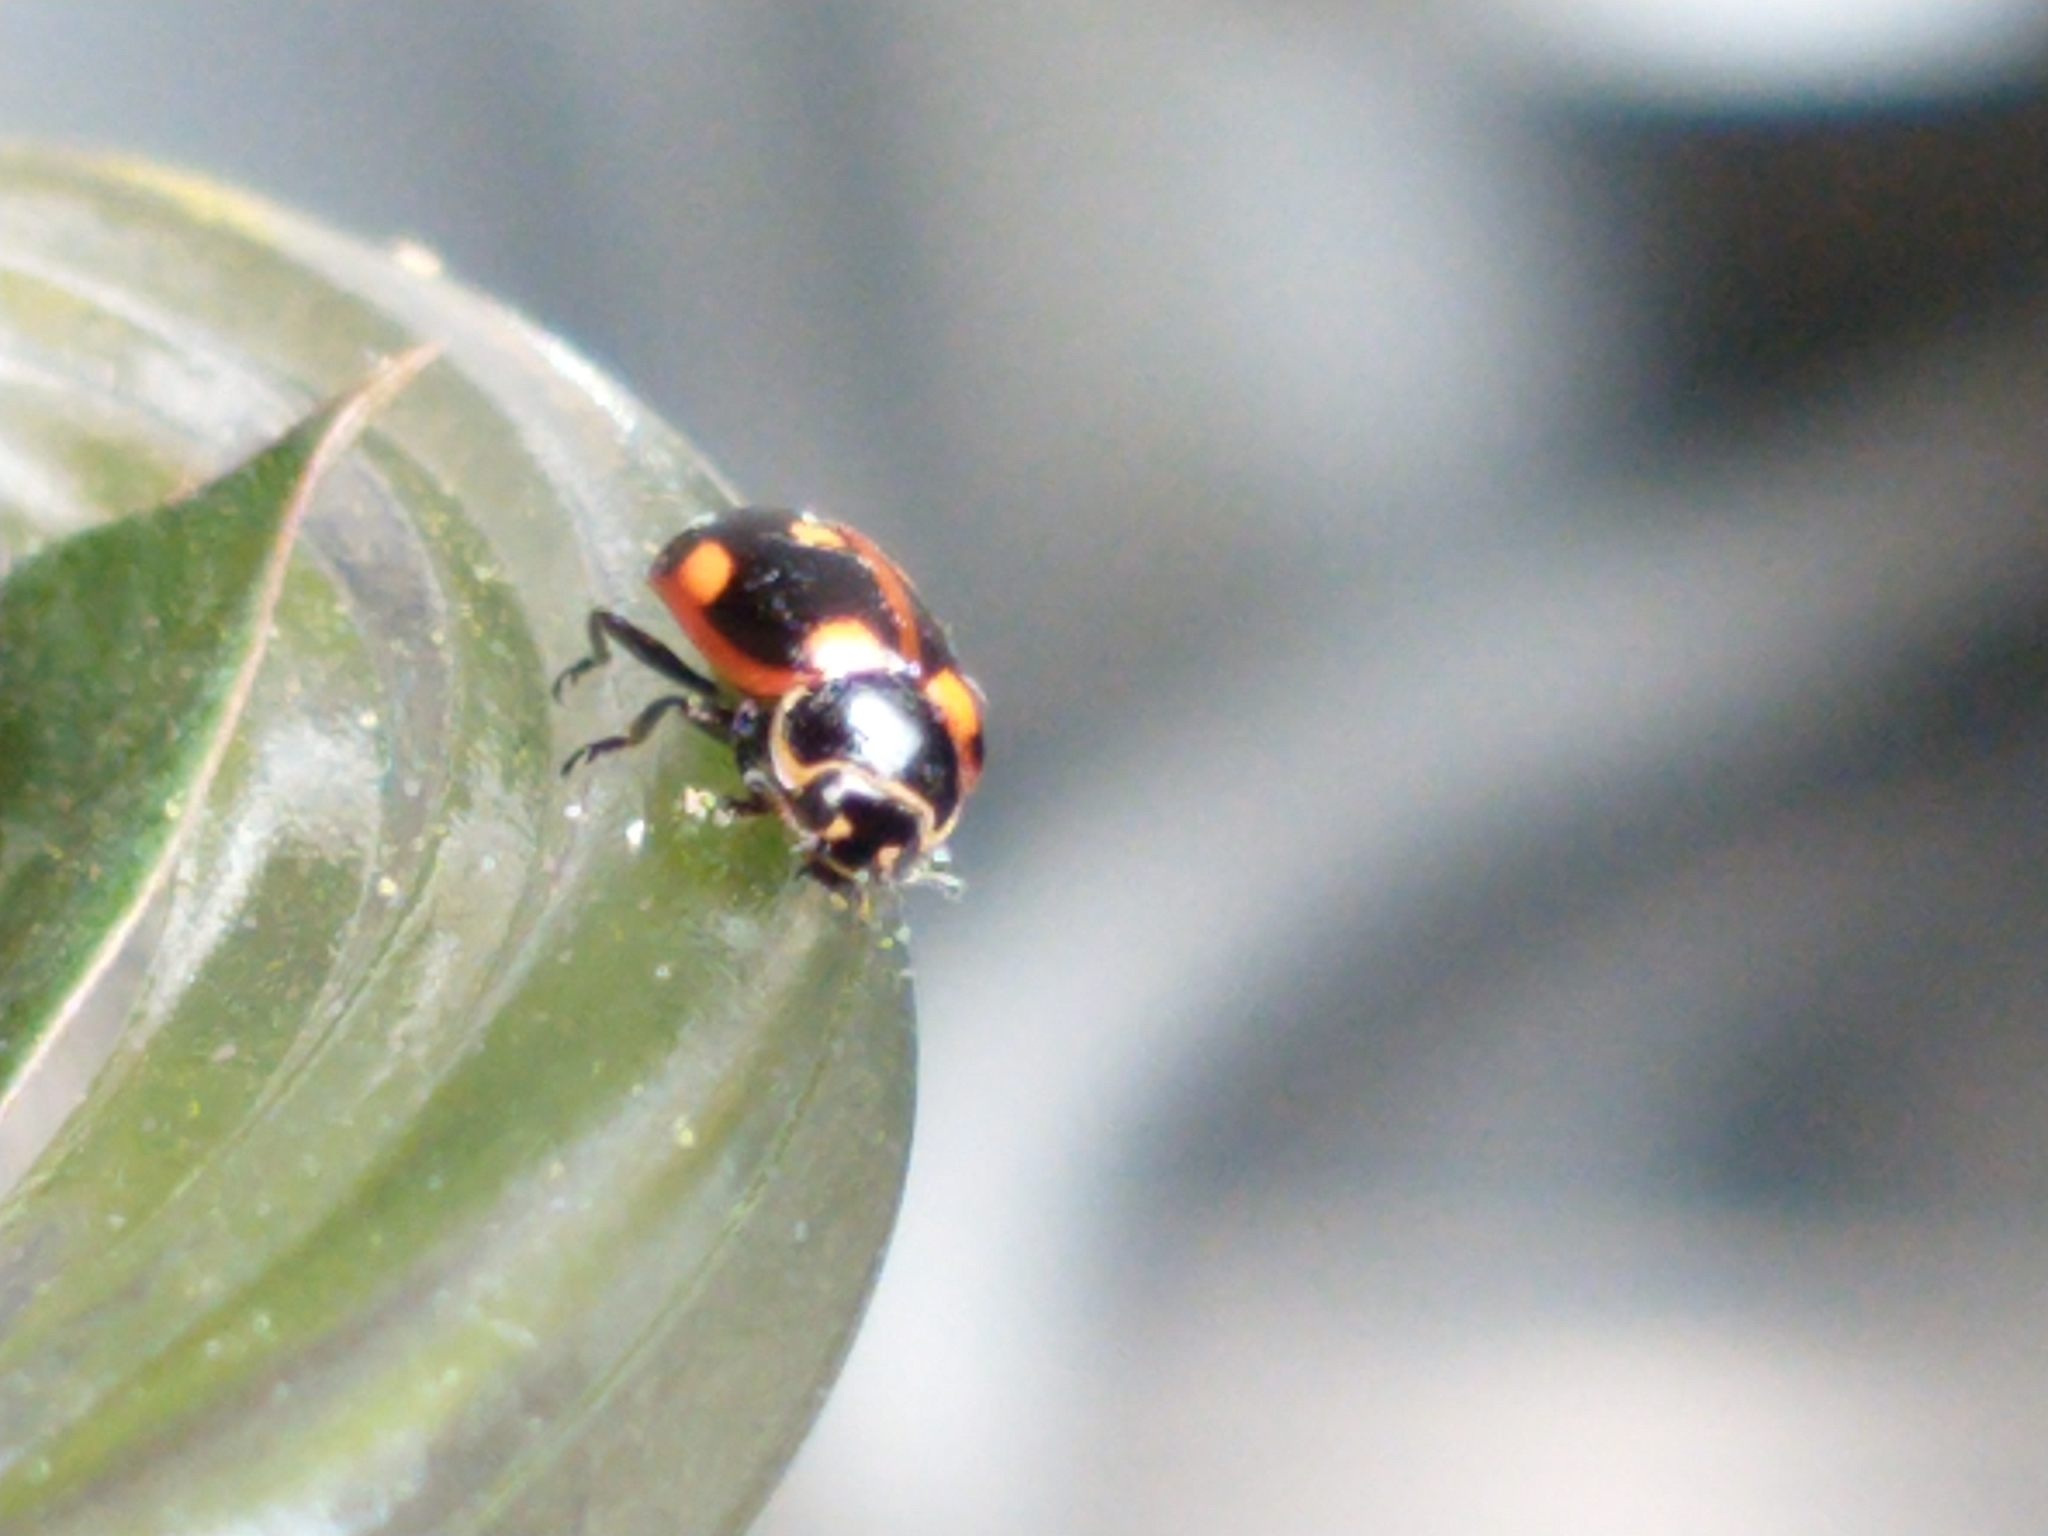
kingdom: Animalia
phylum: Arthropoda
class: Insecta
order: Coleoptera
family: Coccinellidae
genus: Cycloneda
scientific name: Cycloneda germainii
